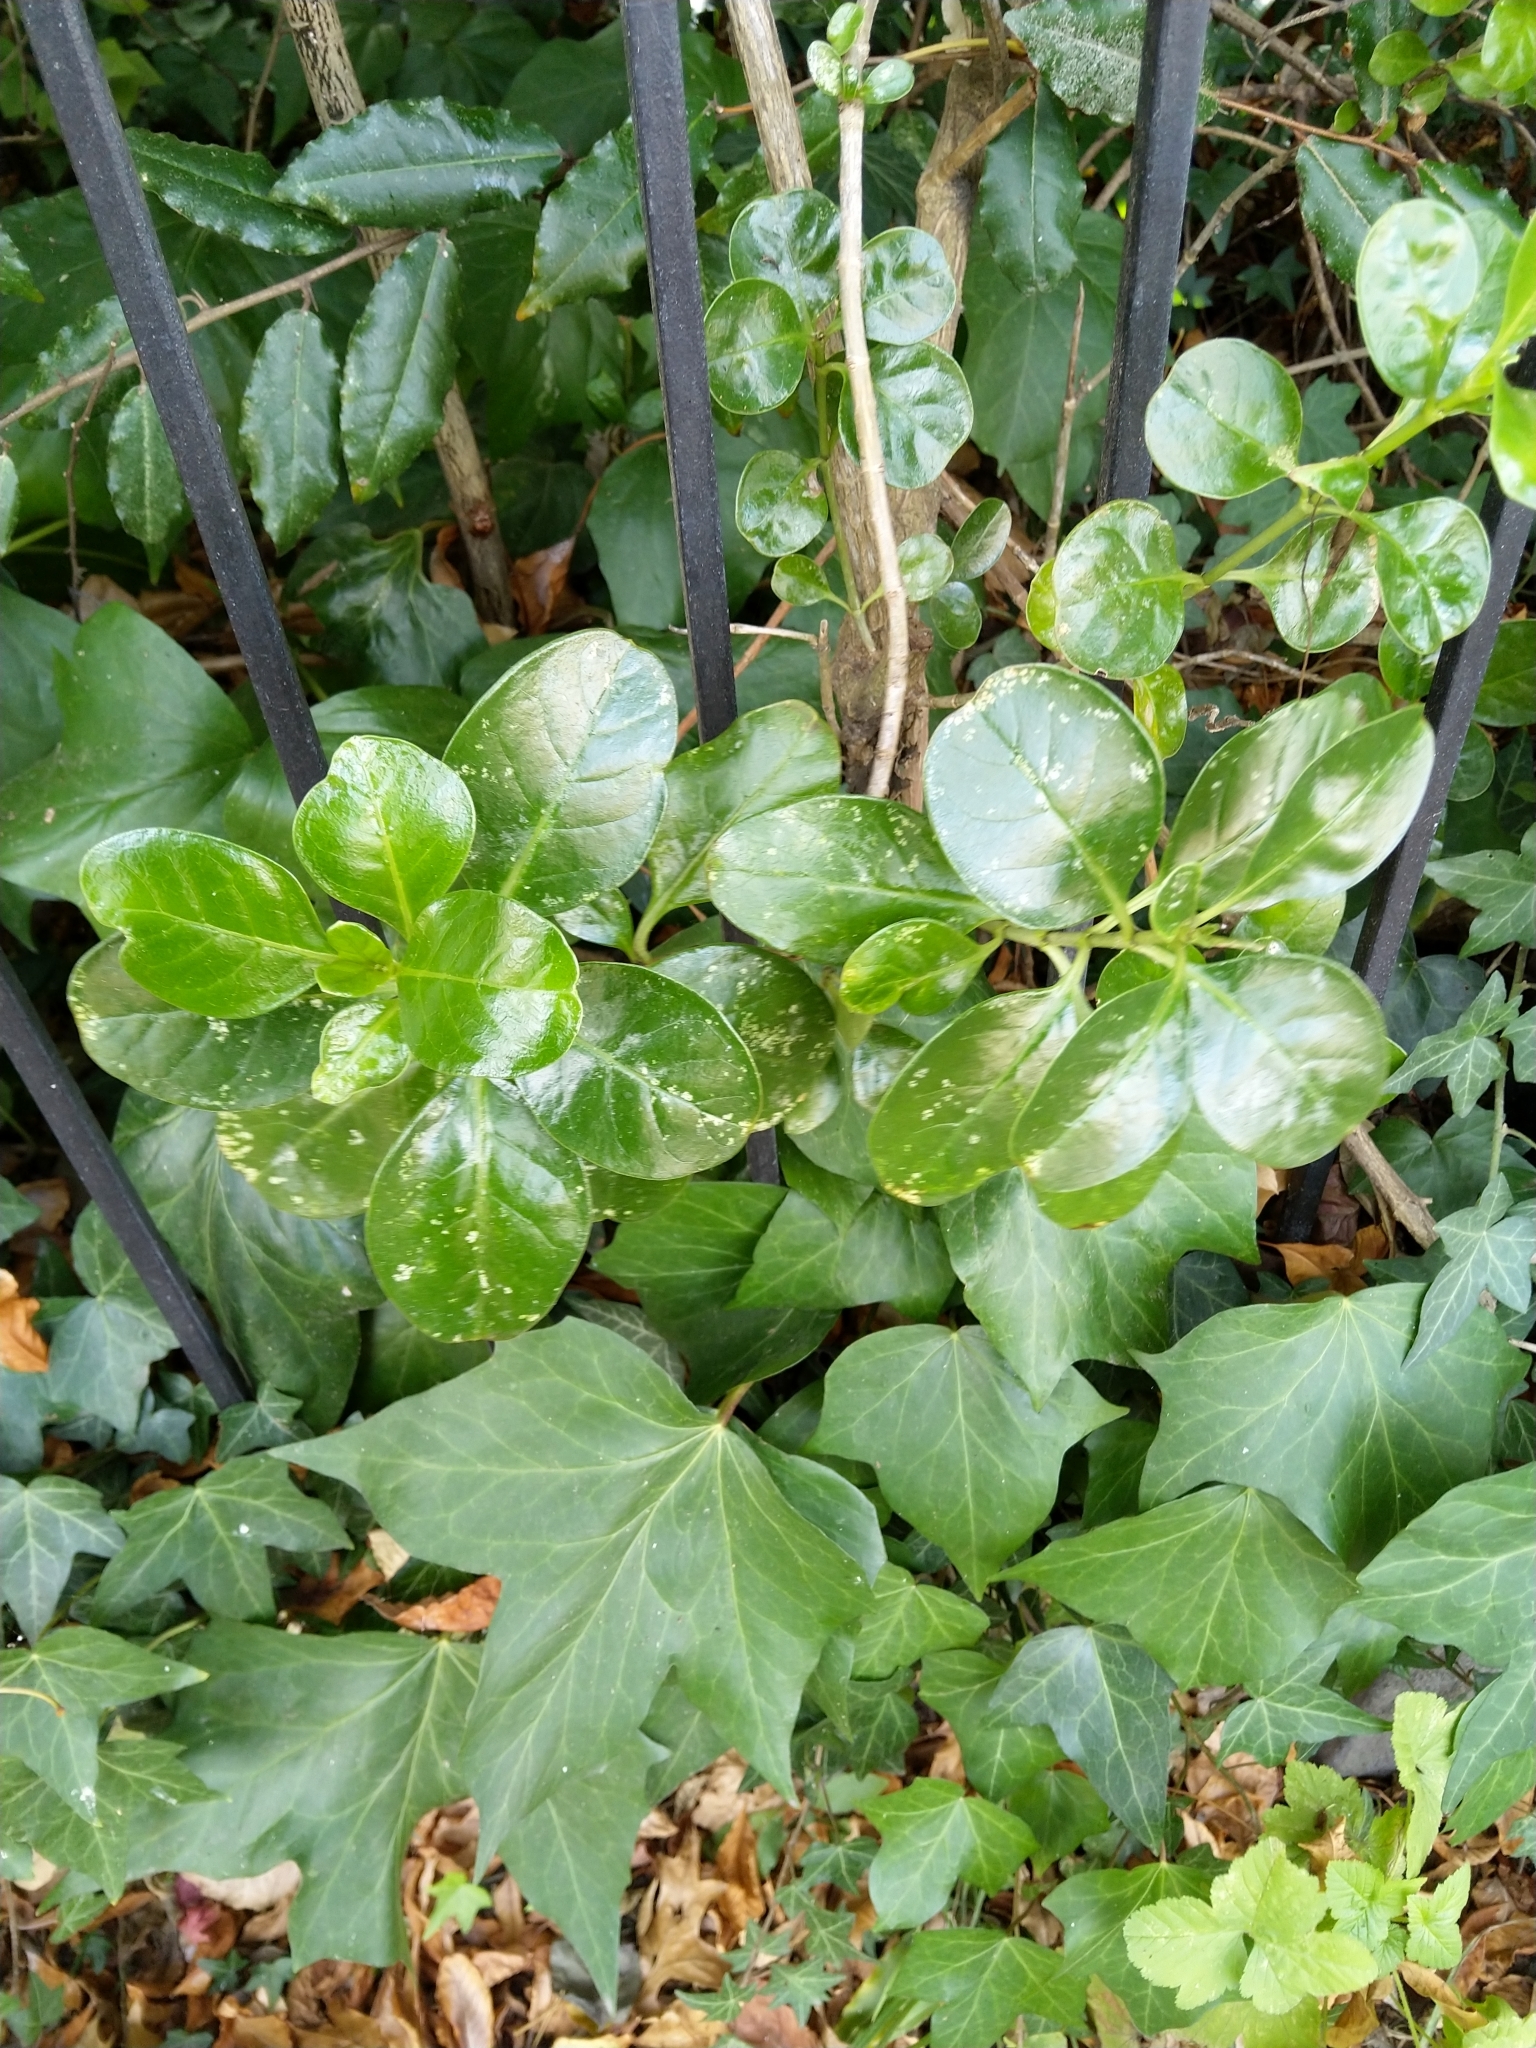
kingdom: Plantae
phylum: Tracheophyta
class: Magnoliopsida
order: Gentianales
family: Rubiaceae
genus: Coprosma
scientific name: Coprosma repens
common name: Tree bedstraw
